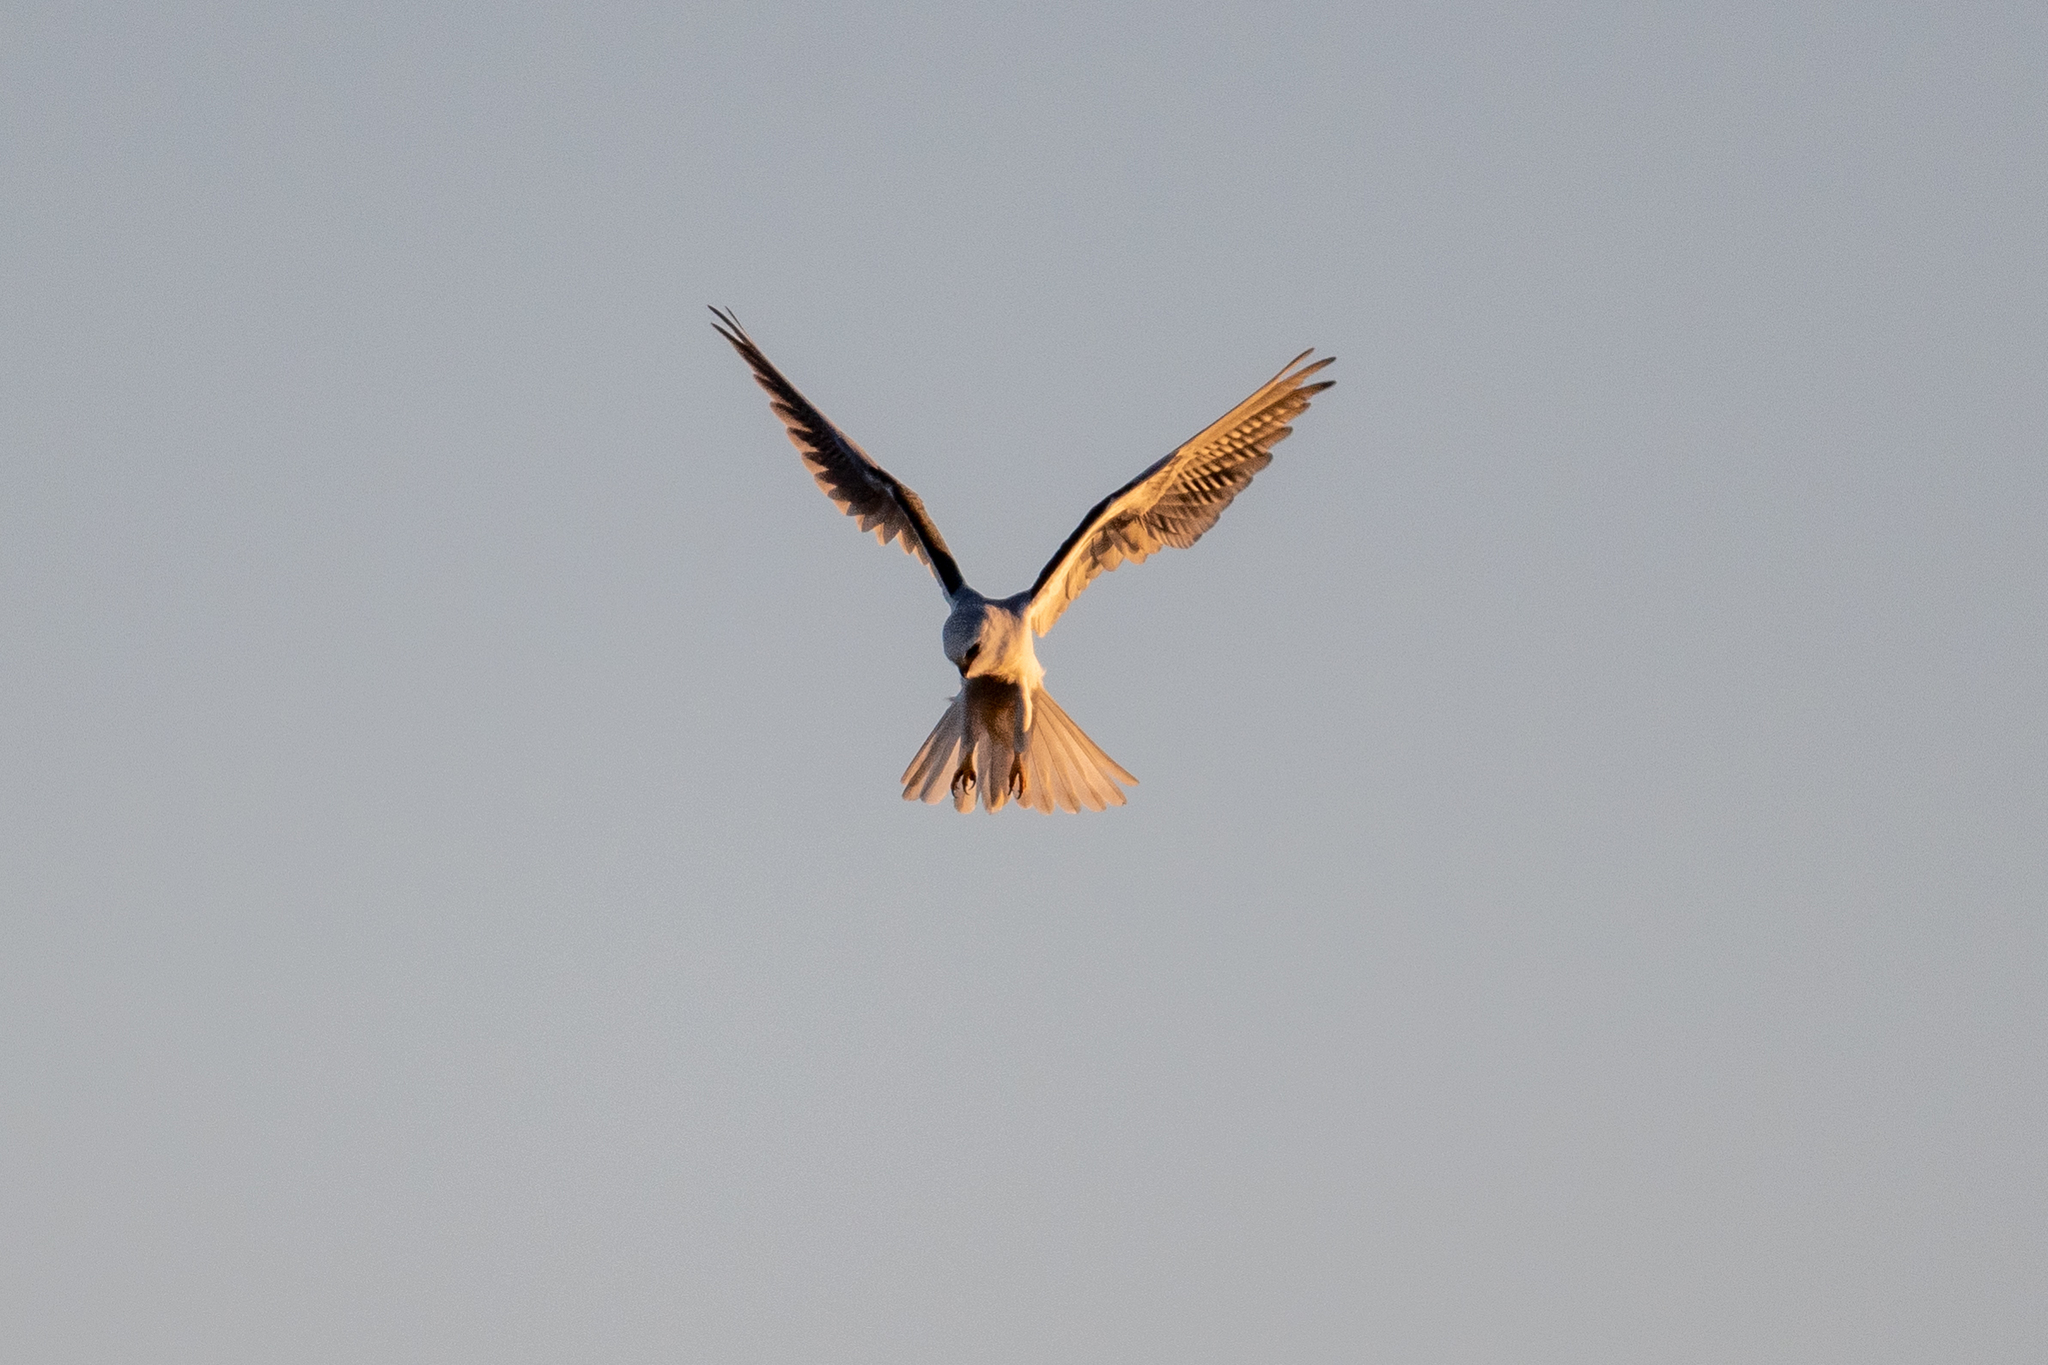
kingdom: Animalia
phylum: Chordata
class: Aves
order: Accipitriformes
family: Accipitridae
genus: Elanus
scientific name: Elanus leucurus
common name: White-tailed kite
